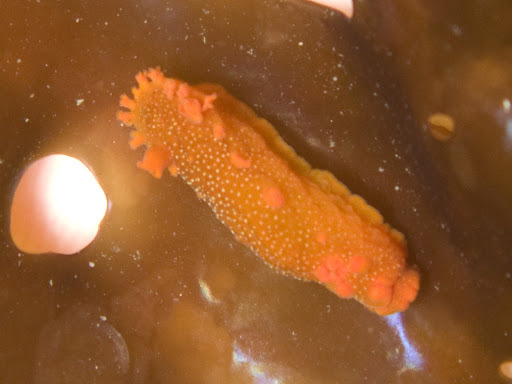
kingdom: Animalia
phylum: Mollusca
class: Gastropoda
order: Nudibranchia
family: Polyceridae
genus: Triopha
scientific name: Triopha maculata
